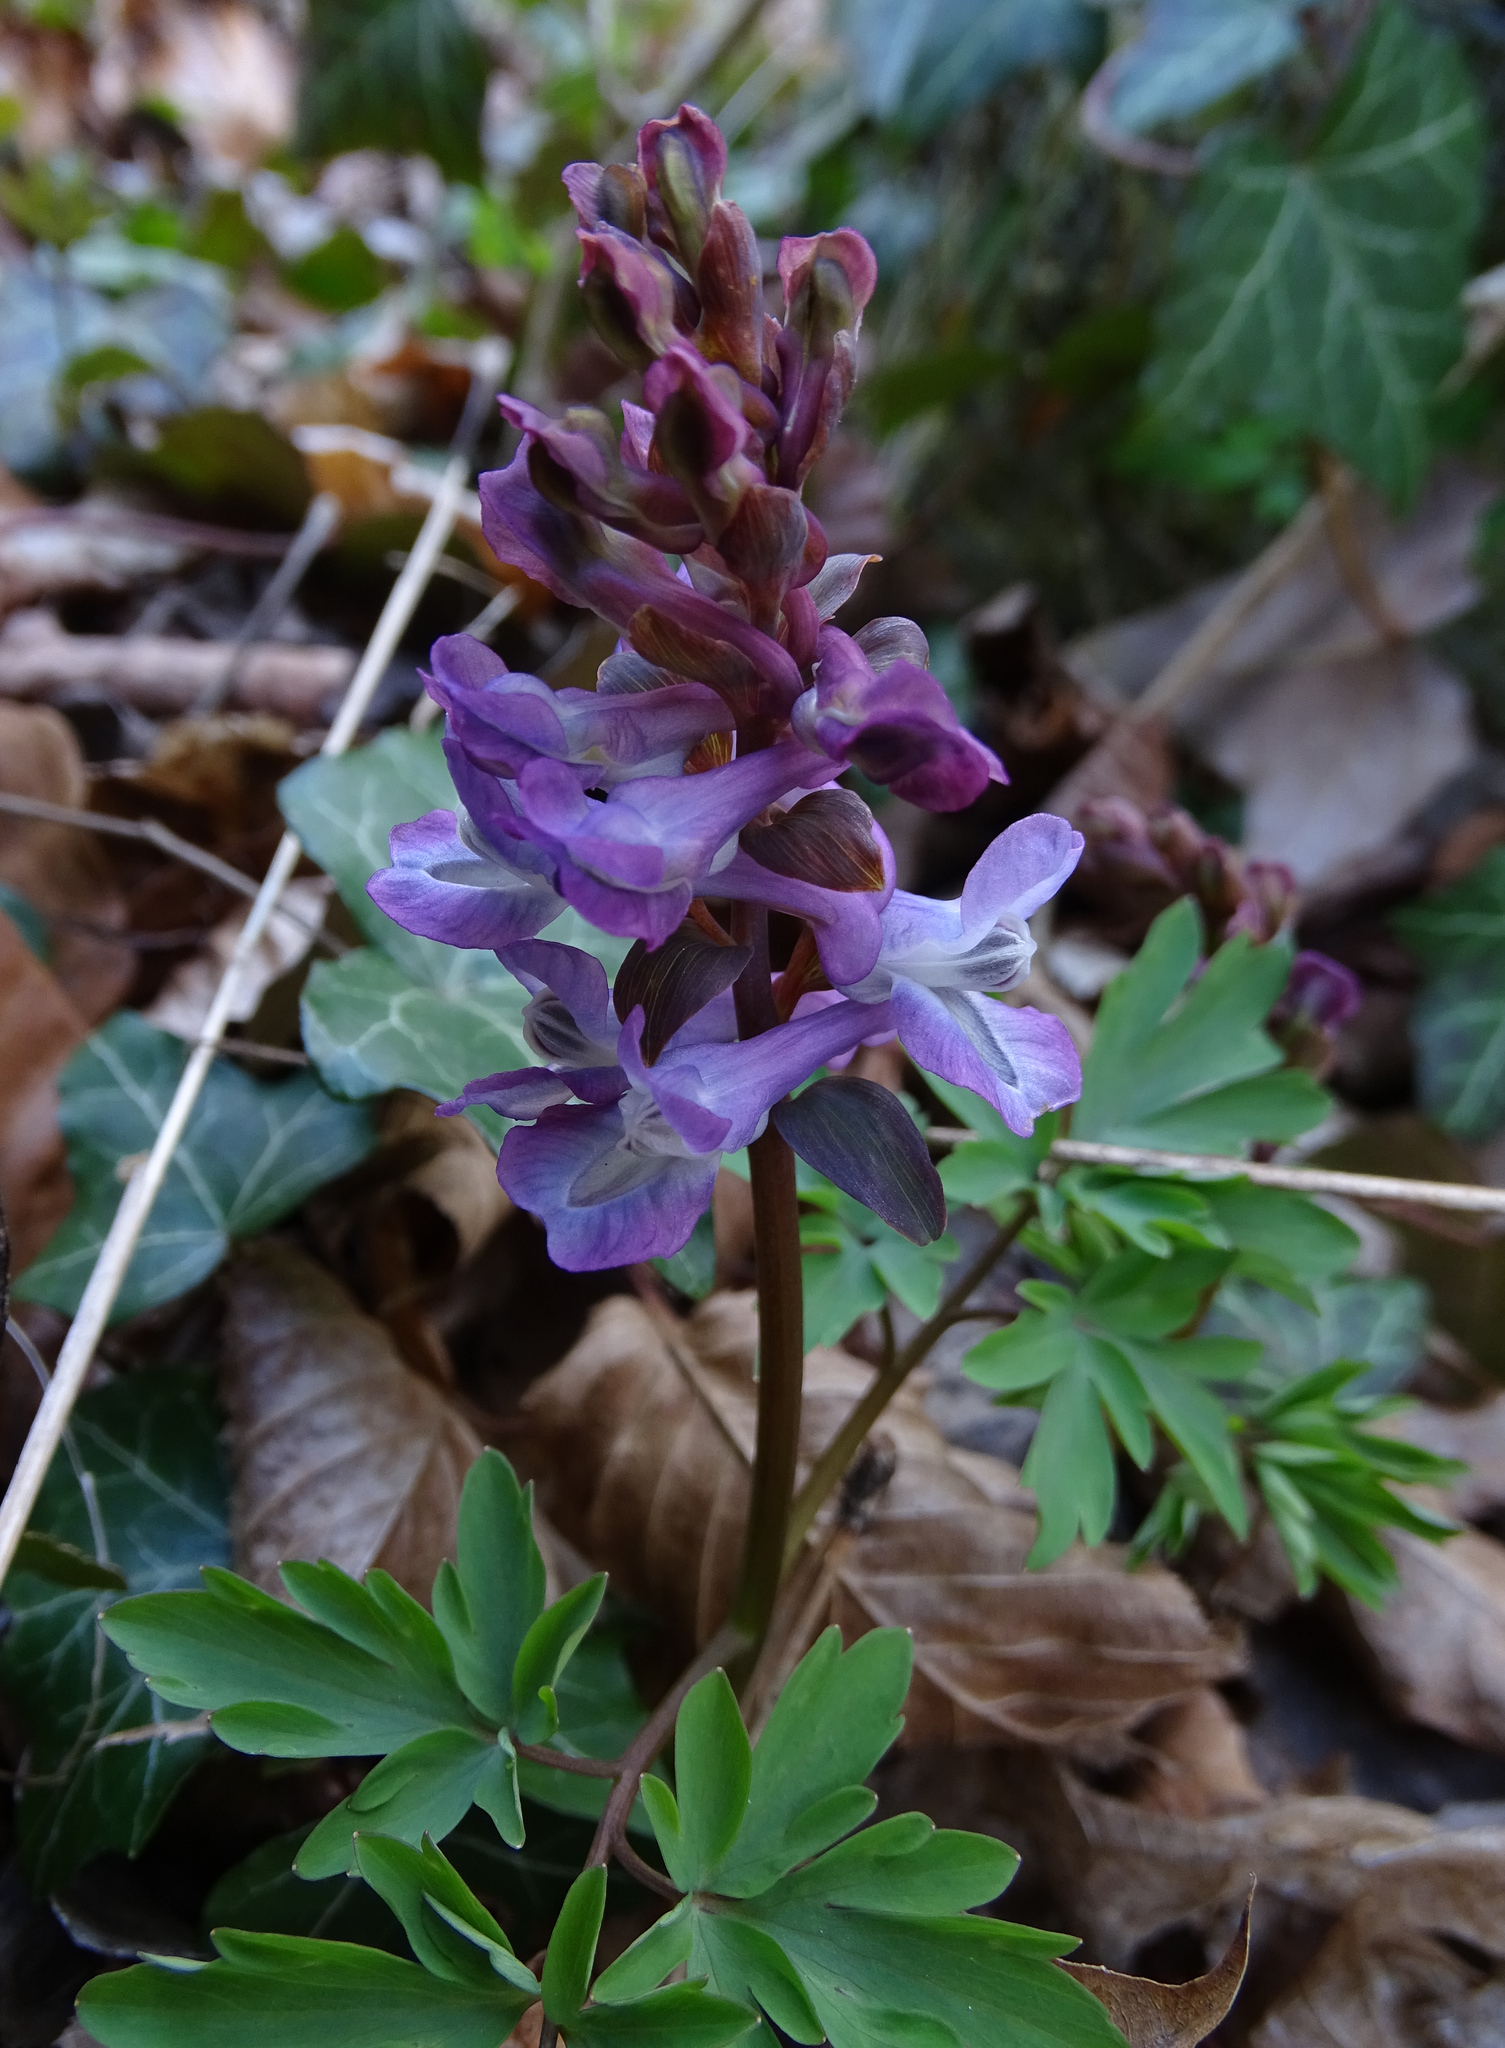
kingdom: Plantae
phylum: Tracheophyta
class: Magnoliopsida
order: Ranunculales
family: Papaveraceae
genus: Corydalis
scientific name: Corydalis cava
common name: Hollowroot
